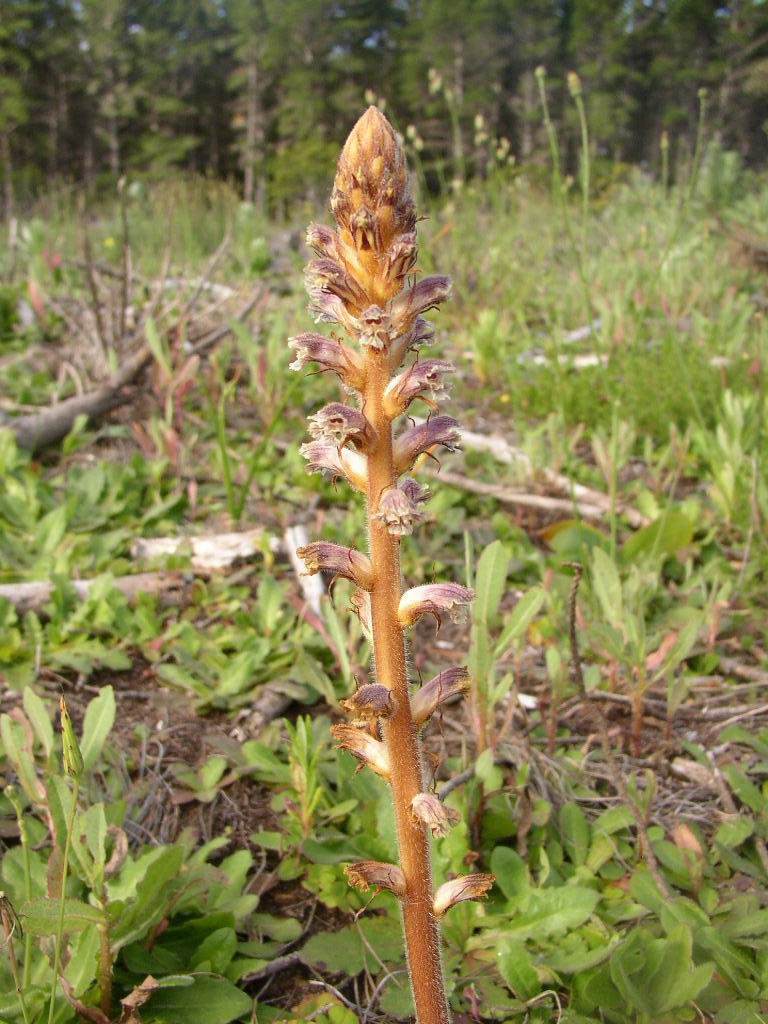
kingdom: Plantae
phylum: Tracheophyta
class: Magnoliopsida
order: Lamiales
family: Orobanchaceae
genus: Orobanche
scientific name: Orobanche minor
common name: Common broomrape
